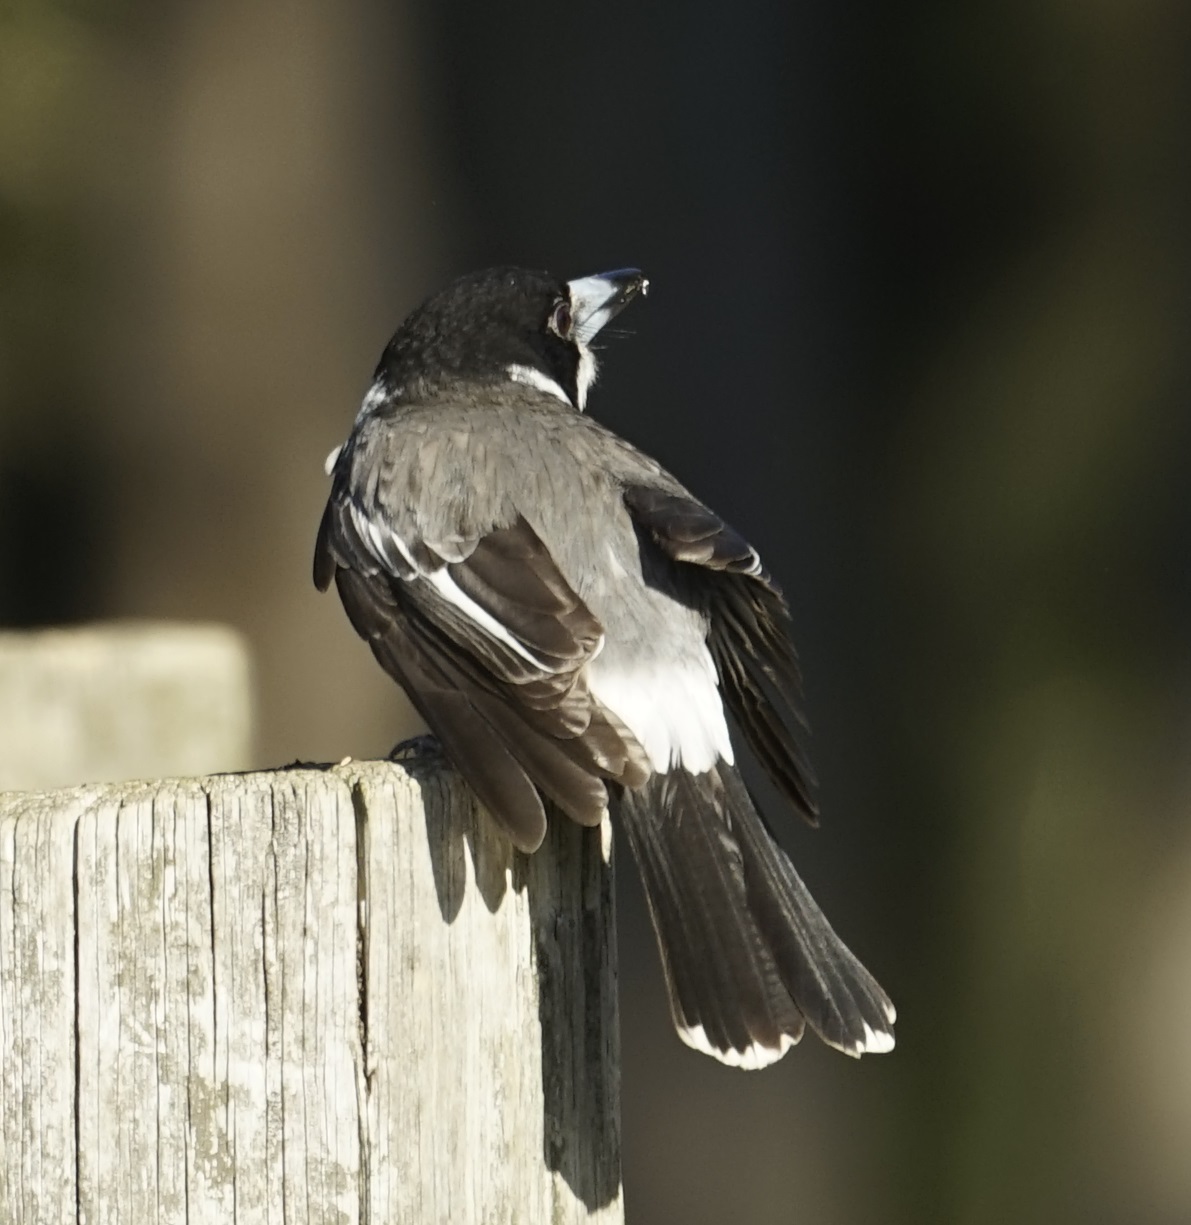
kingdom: Animalia
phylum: Chordata
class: Aves
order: Passeriformes
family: Cracticidae
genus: Cracticus
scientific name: Cracticus torquatus
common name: Grey butcherbird
